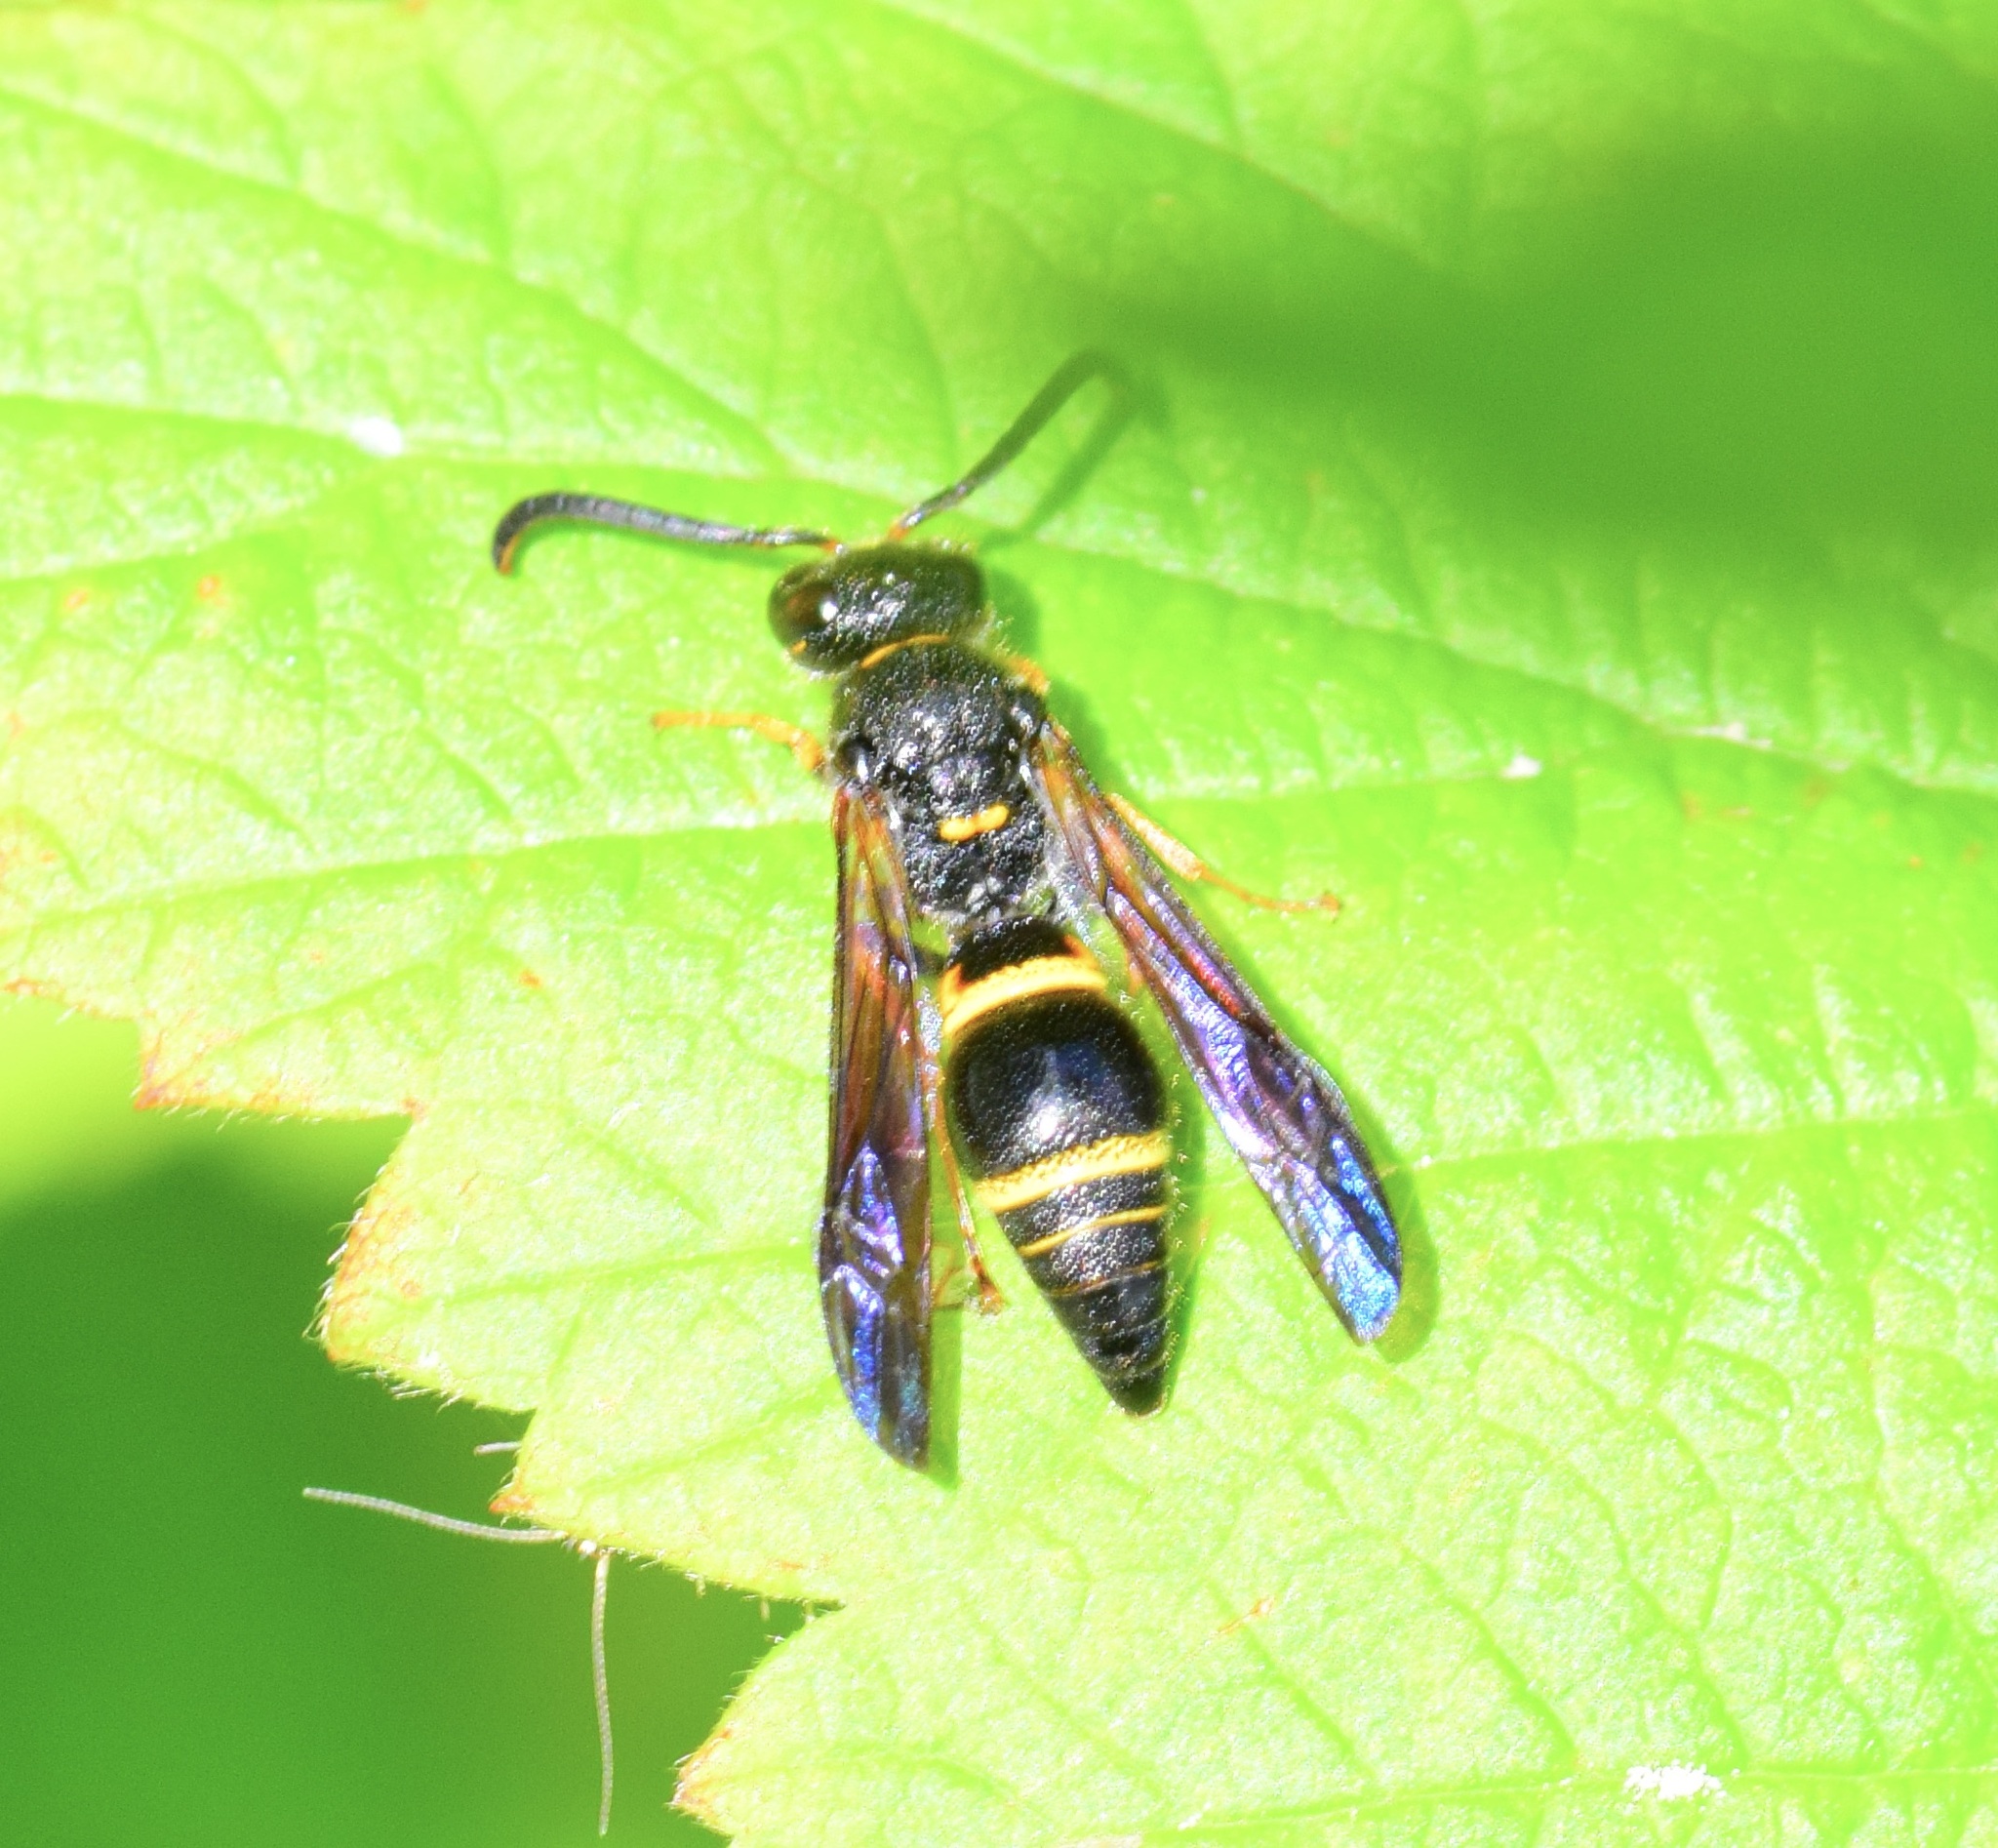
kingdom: Animalia
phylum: Arthropoda
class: Insecta
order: Hymenoptera
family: Vespidae
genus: Ancistrocerus
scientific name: Ancistrocerus unifasciatus
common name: One-banded mason wasp
